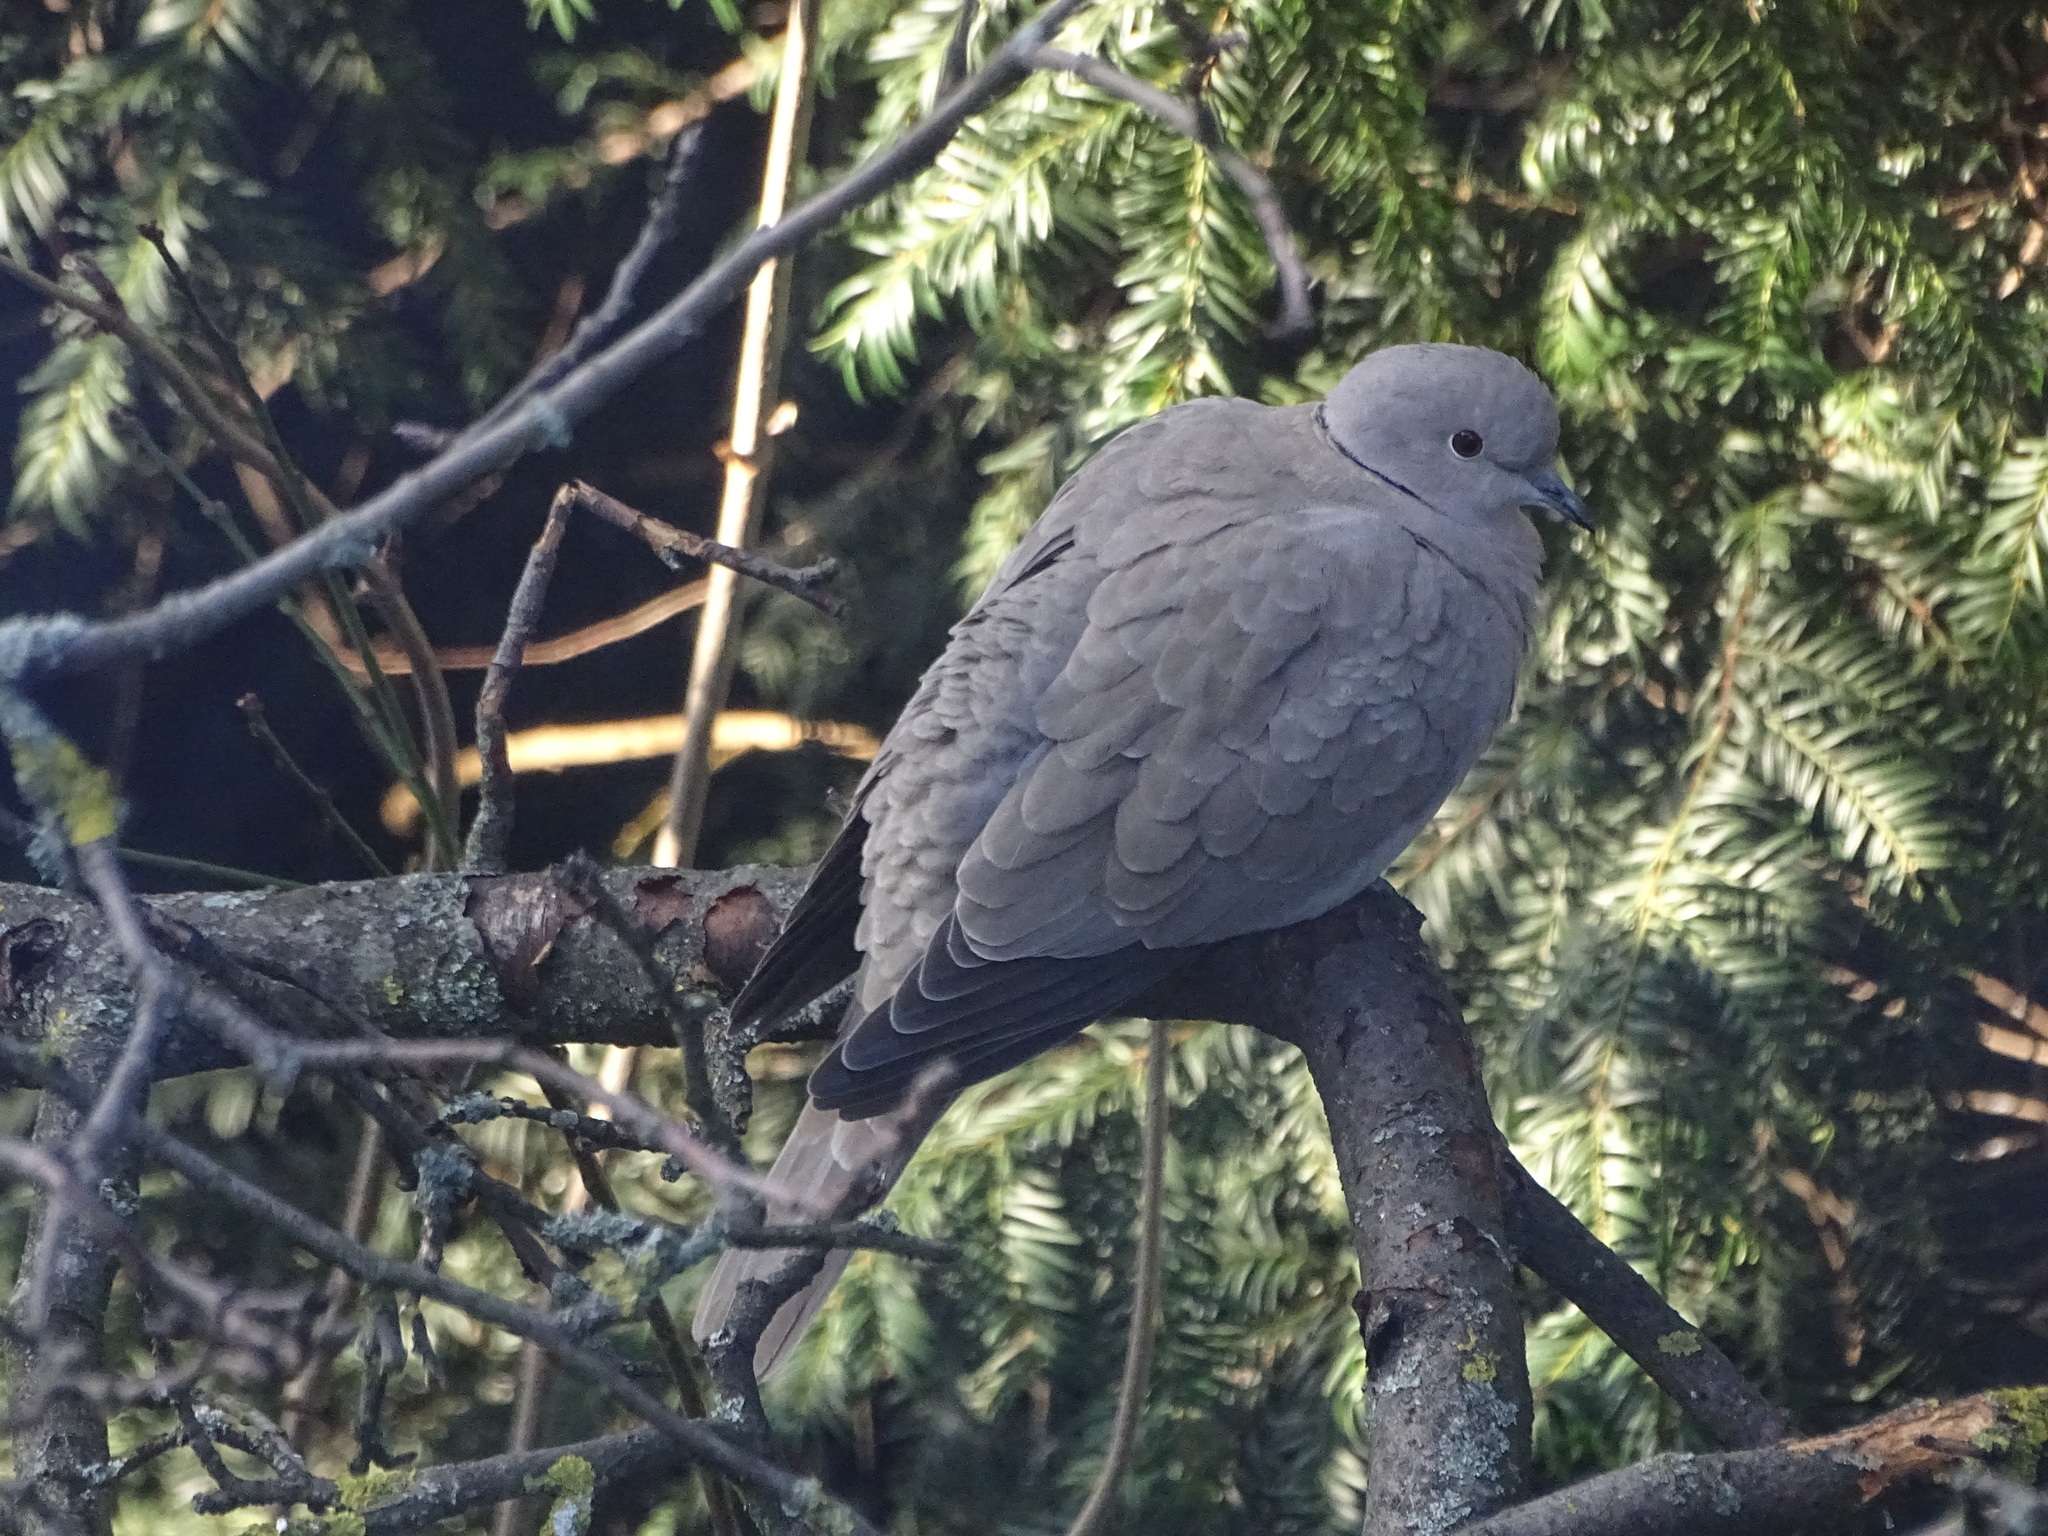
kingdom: Animalia
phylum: Chordata
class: Aves
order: Columbiformes
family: Columbidae
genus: Streptopelia
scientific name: Streptopelia decaocto
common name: Eurasian collared dove
